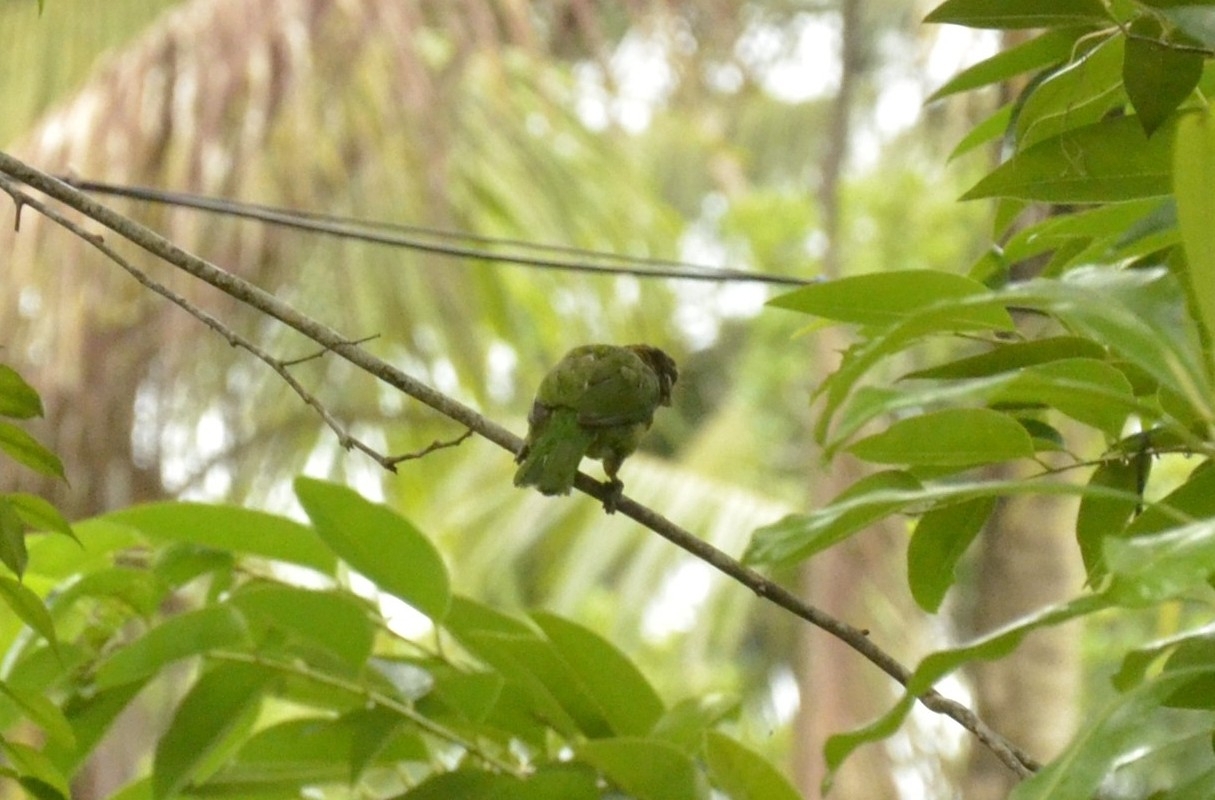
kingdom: Animalia
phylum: Chordata
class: Aves
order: Piciformes
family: Megalaimidae
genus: Psilopogon
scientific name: Psilopogon viridis
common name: White-cheeked barbet
